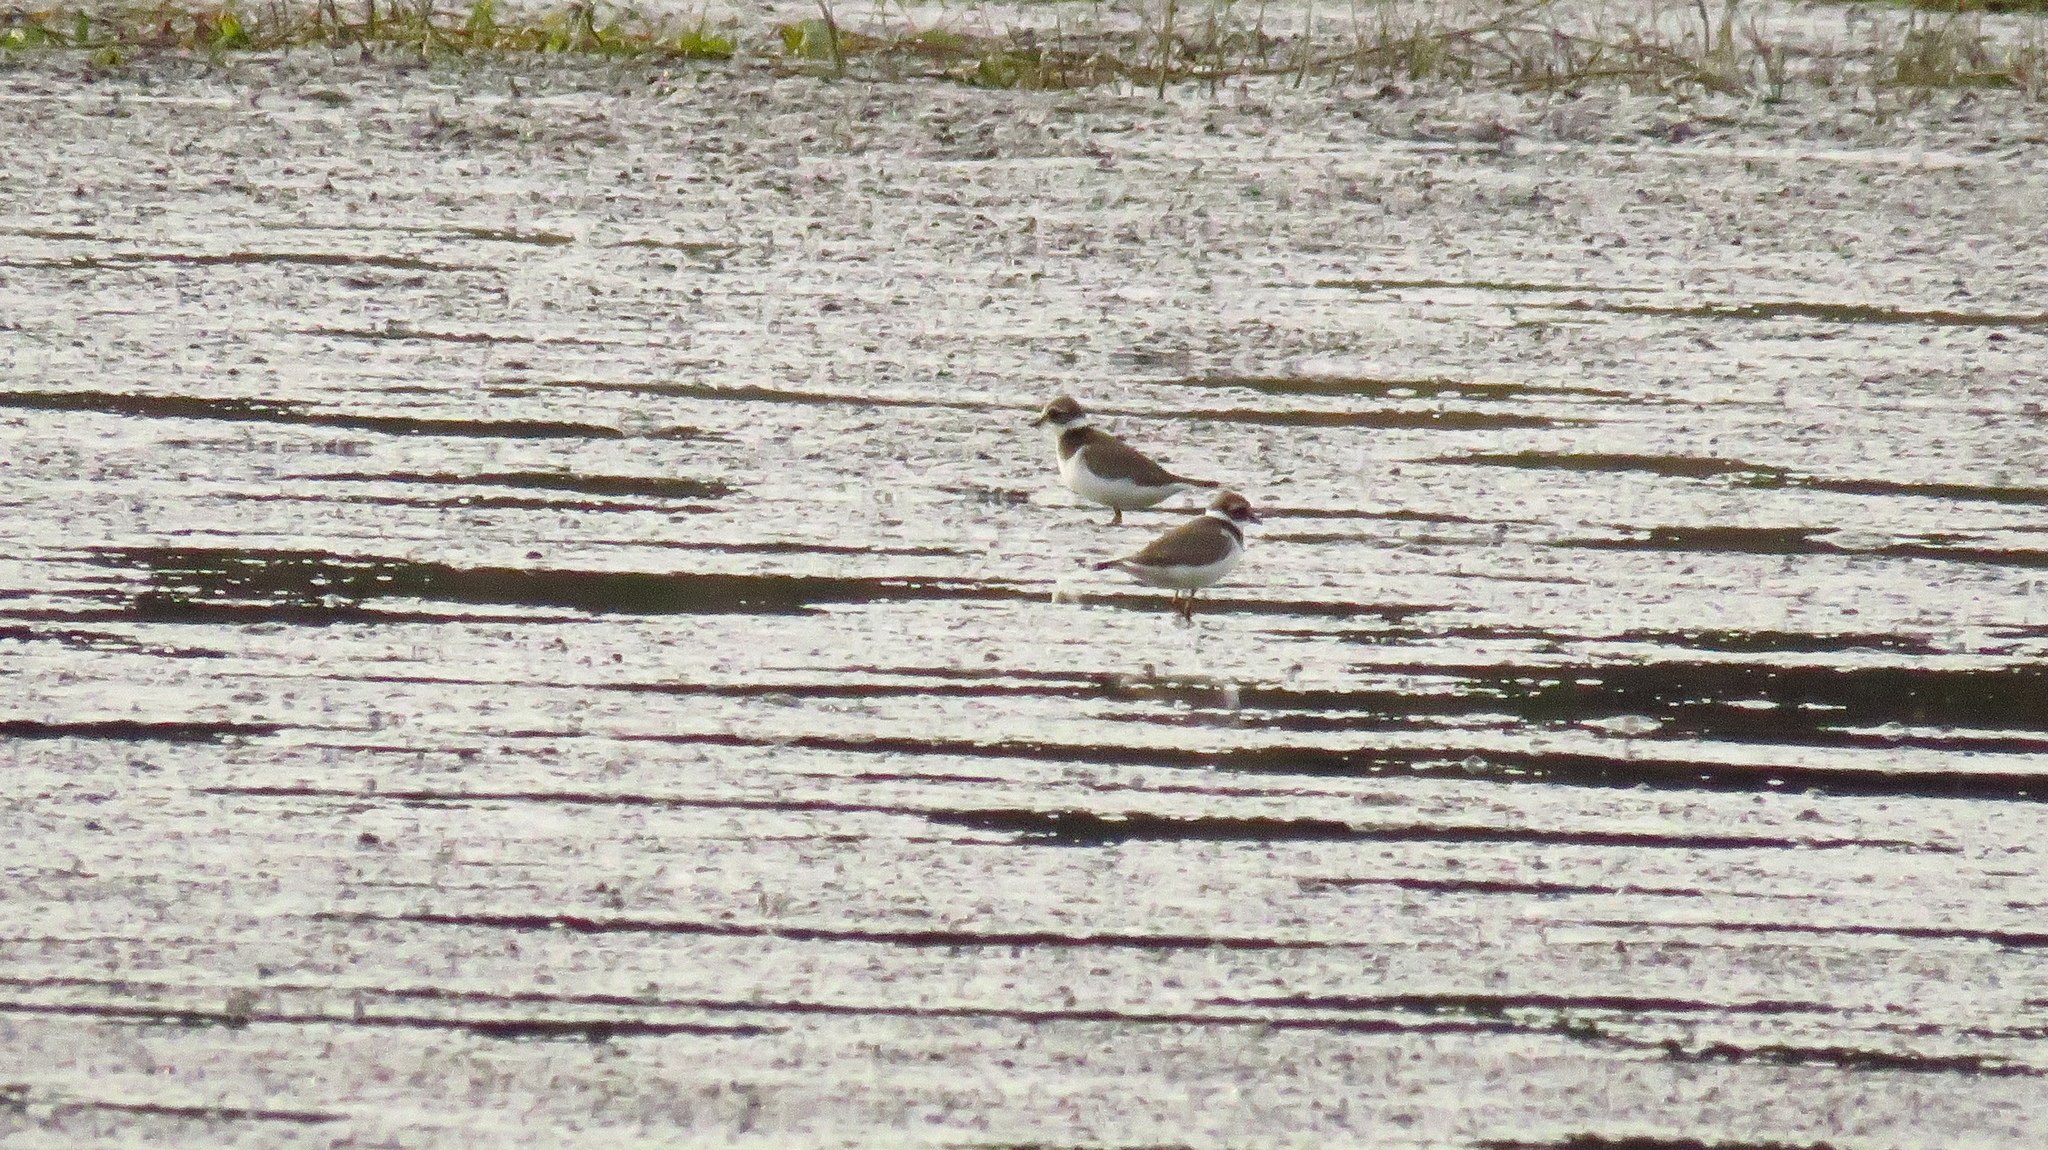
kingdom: Animalia
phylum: Chordata
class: Aves
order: Charadriiformes
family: Charadriidae
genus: Charadrius
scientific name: Charadrius hiaticula
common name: Common ringed plover
